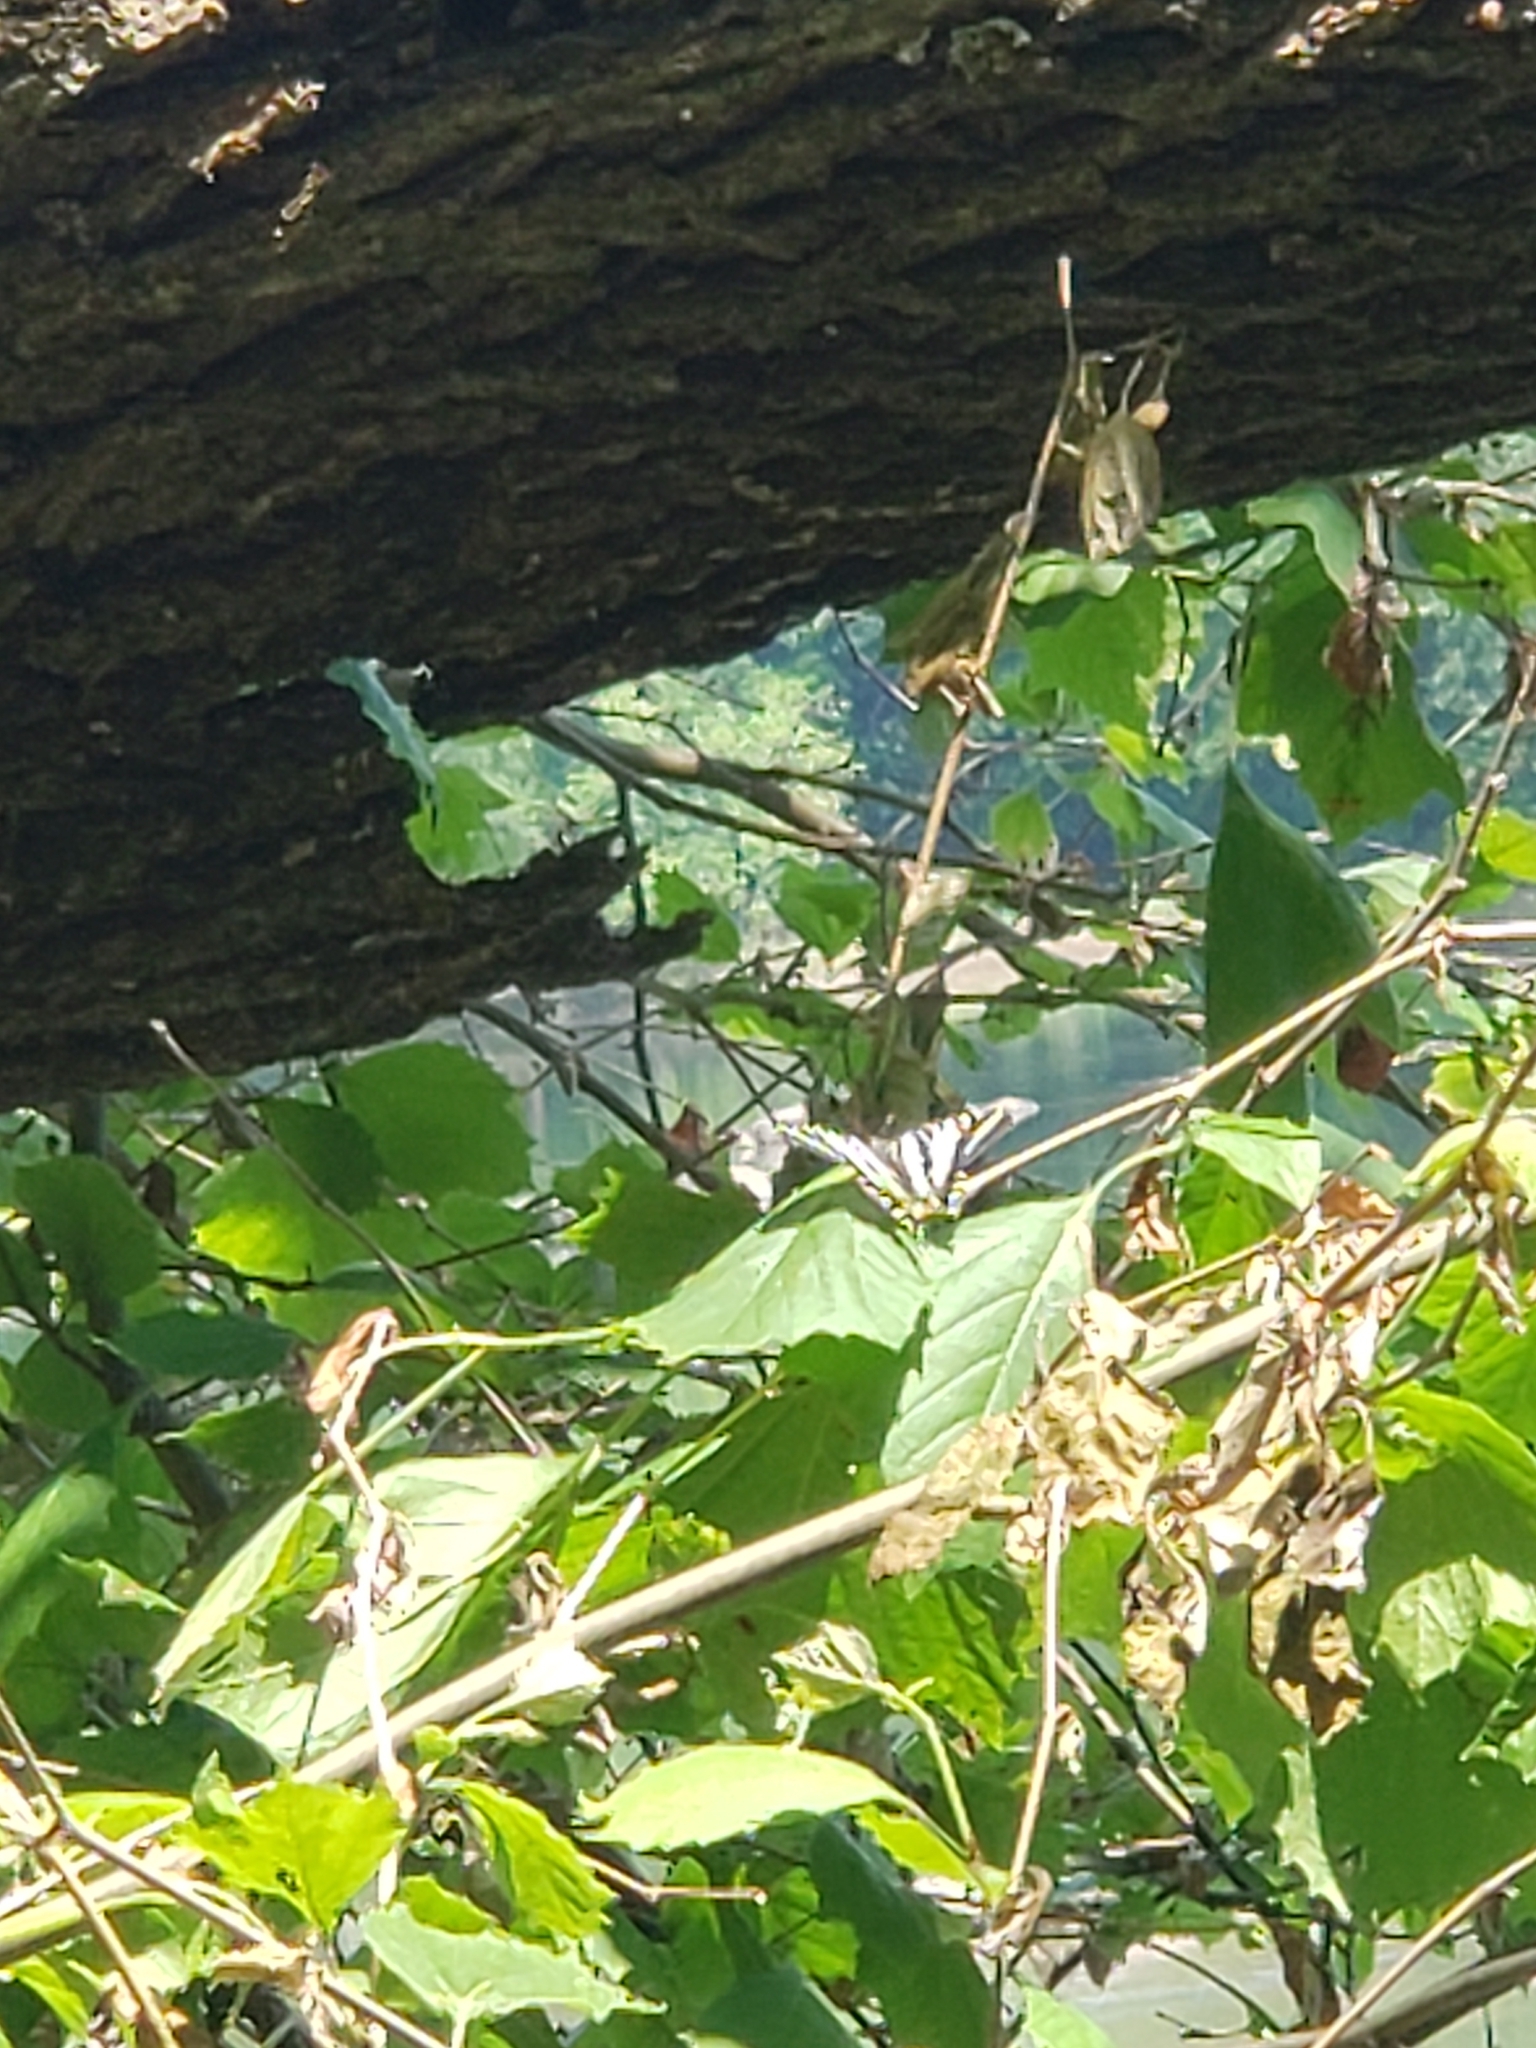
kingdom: Animalia
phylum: Arthropoda
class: Insecta
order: Lepidoptera
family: Papilionidae
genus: Protographium
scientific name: Protographium marcellus
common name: Zebra swallowtail
